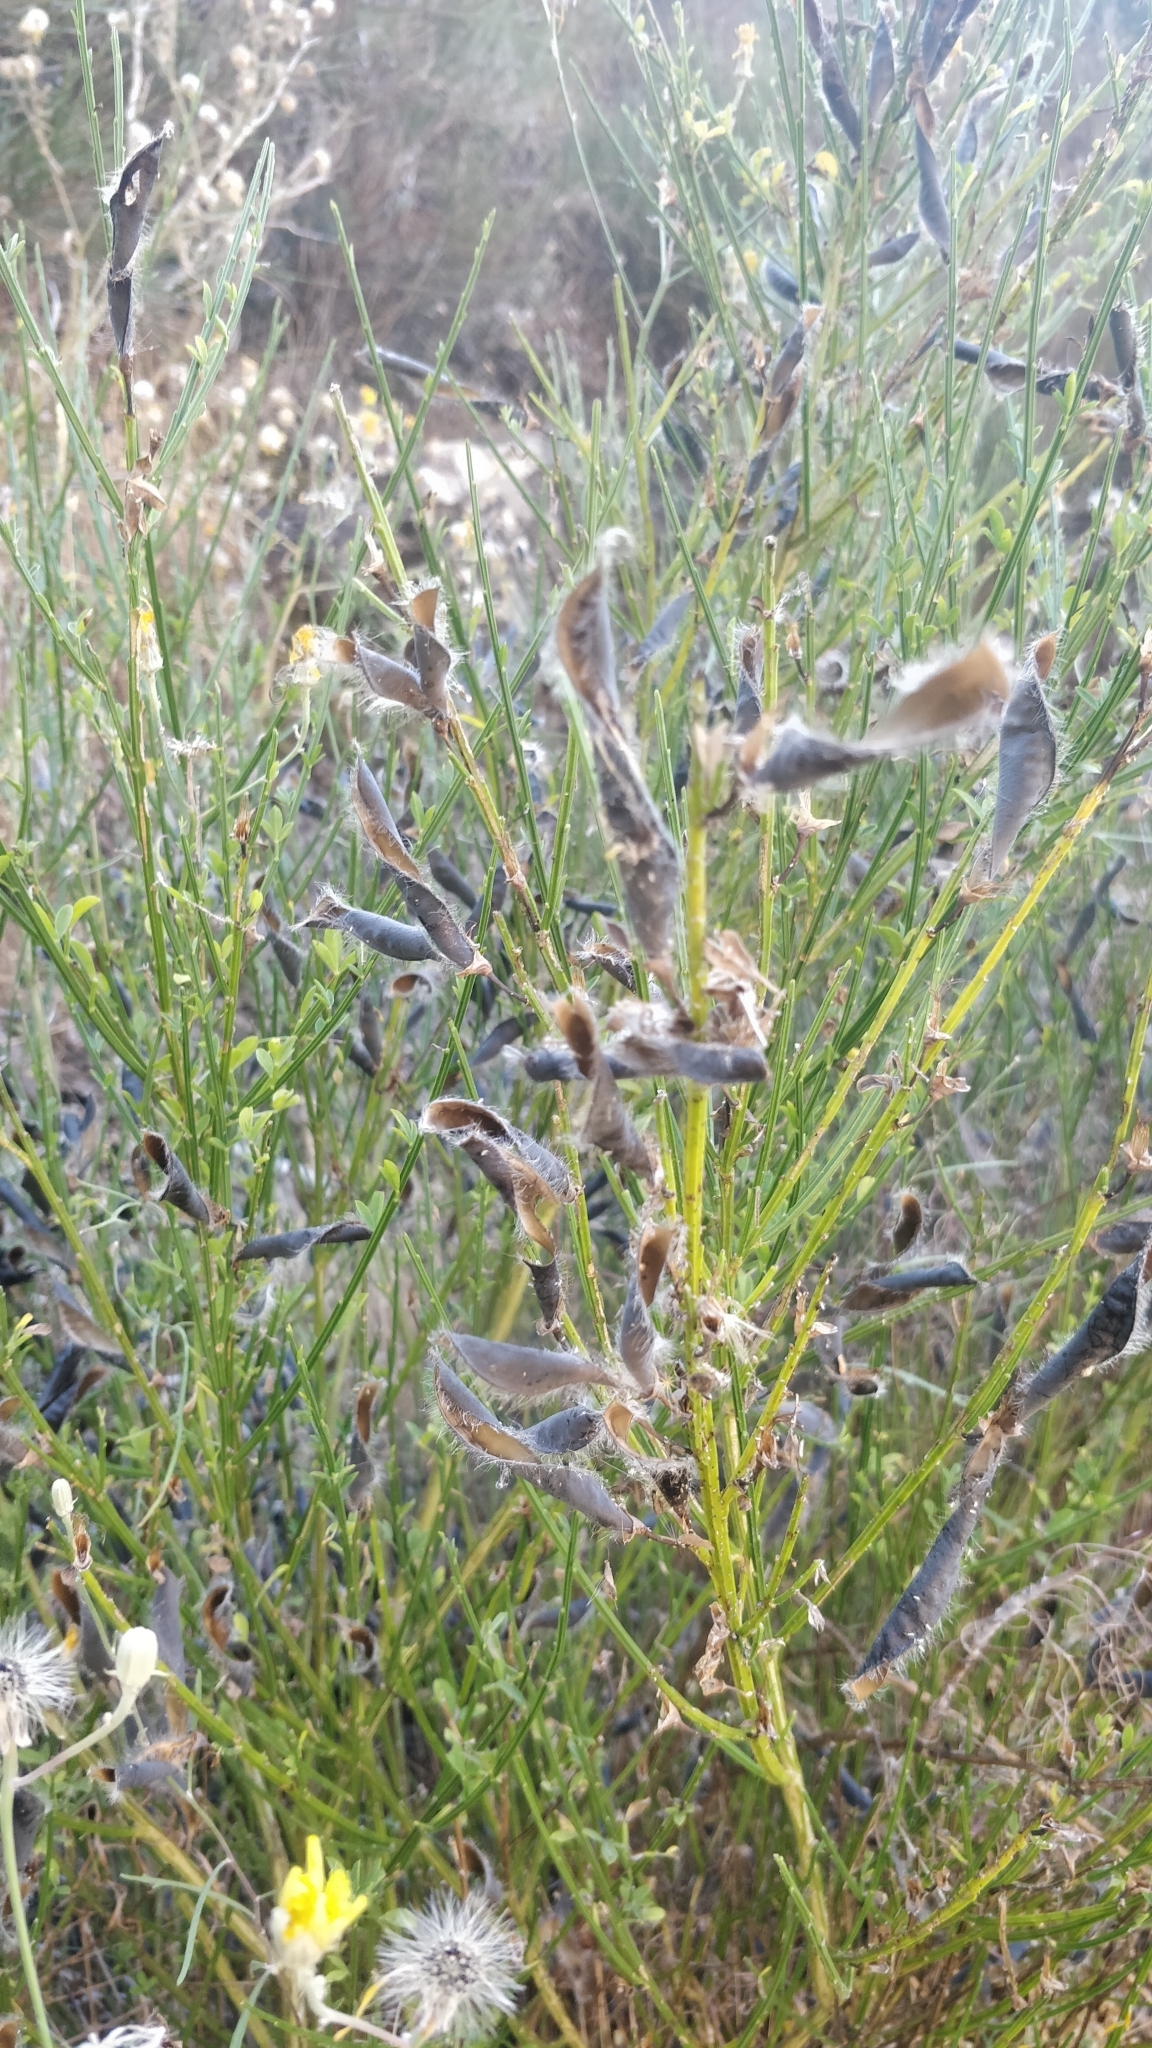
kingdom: Plantae
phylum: Tracheophyta
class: Magnoliopsida
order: Fabales
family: Fabaceae
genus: Cytisus
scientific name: Cytisus scoparius
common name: Scotch broom
